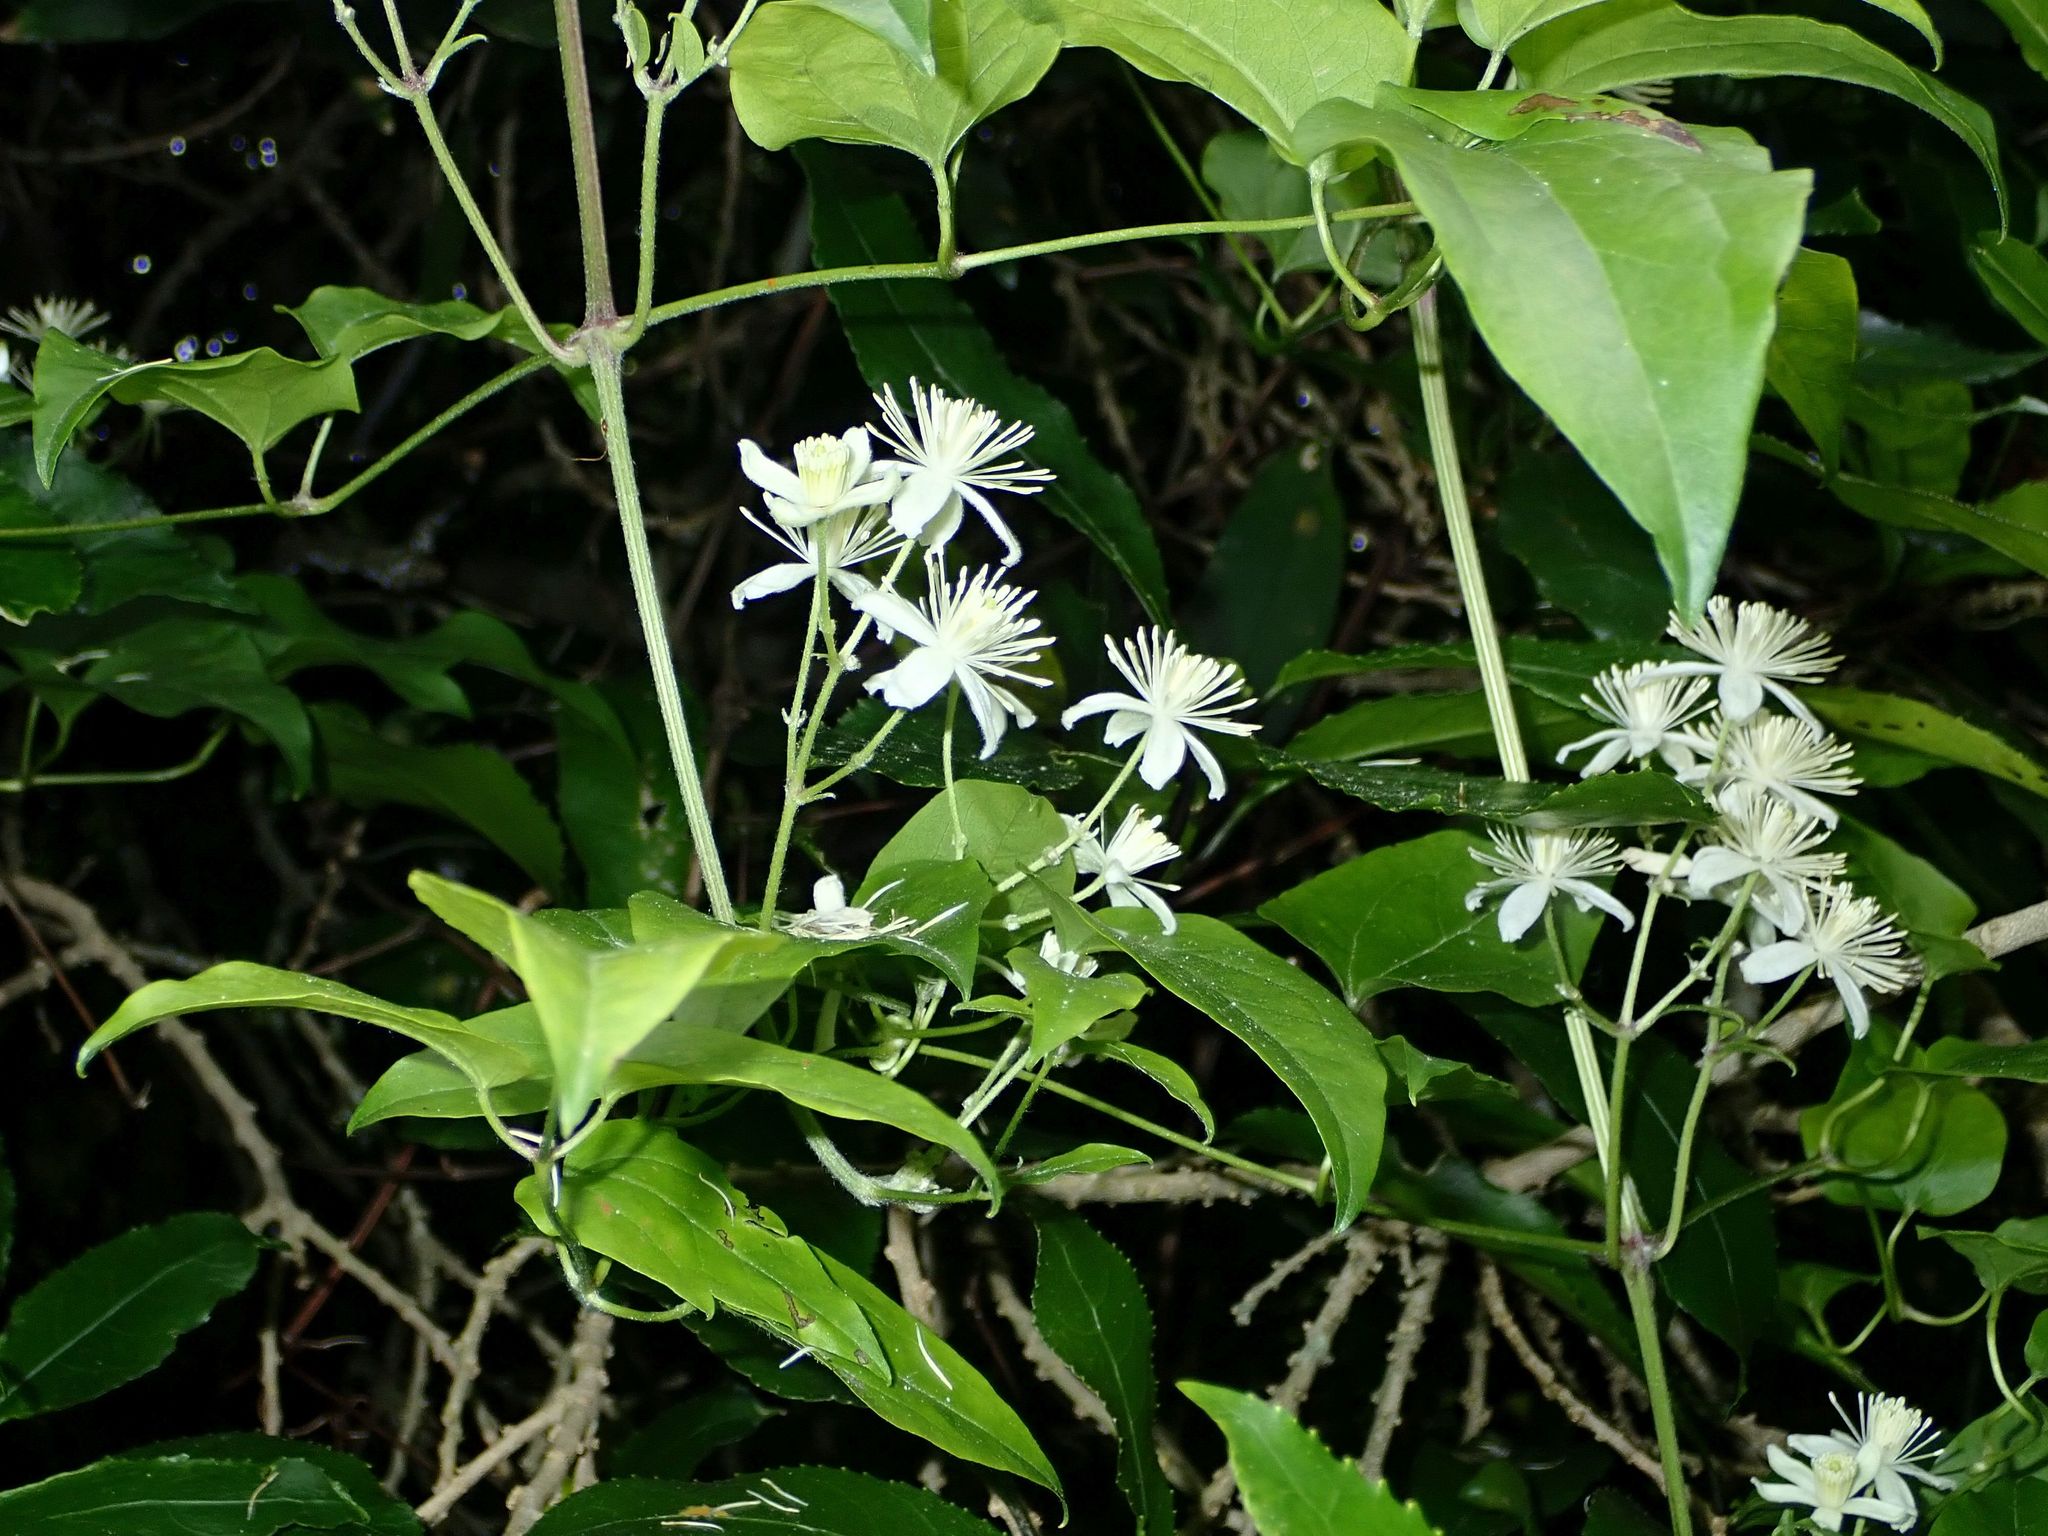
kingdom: Plantae
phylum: Tracheophyta
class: Magnoliopsida
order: Ranunculales
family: Ranunculaceae
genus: Clematis
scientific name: Clematis vitalba
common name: Evergreen clematis
